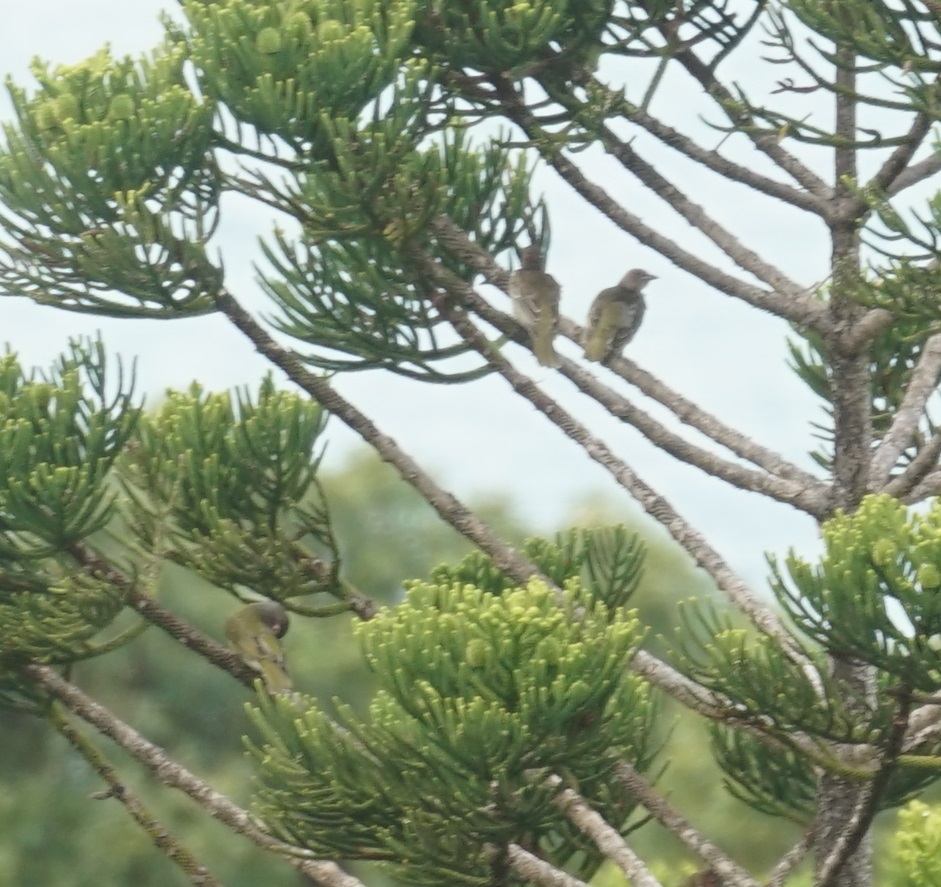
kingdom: Animalia
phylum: Chordata
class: Aves
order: Passeriformes
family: Oriolidae
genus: Sphecotheres
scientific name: Sphecotheres vieilloti
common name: Australasian figbird
